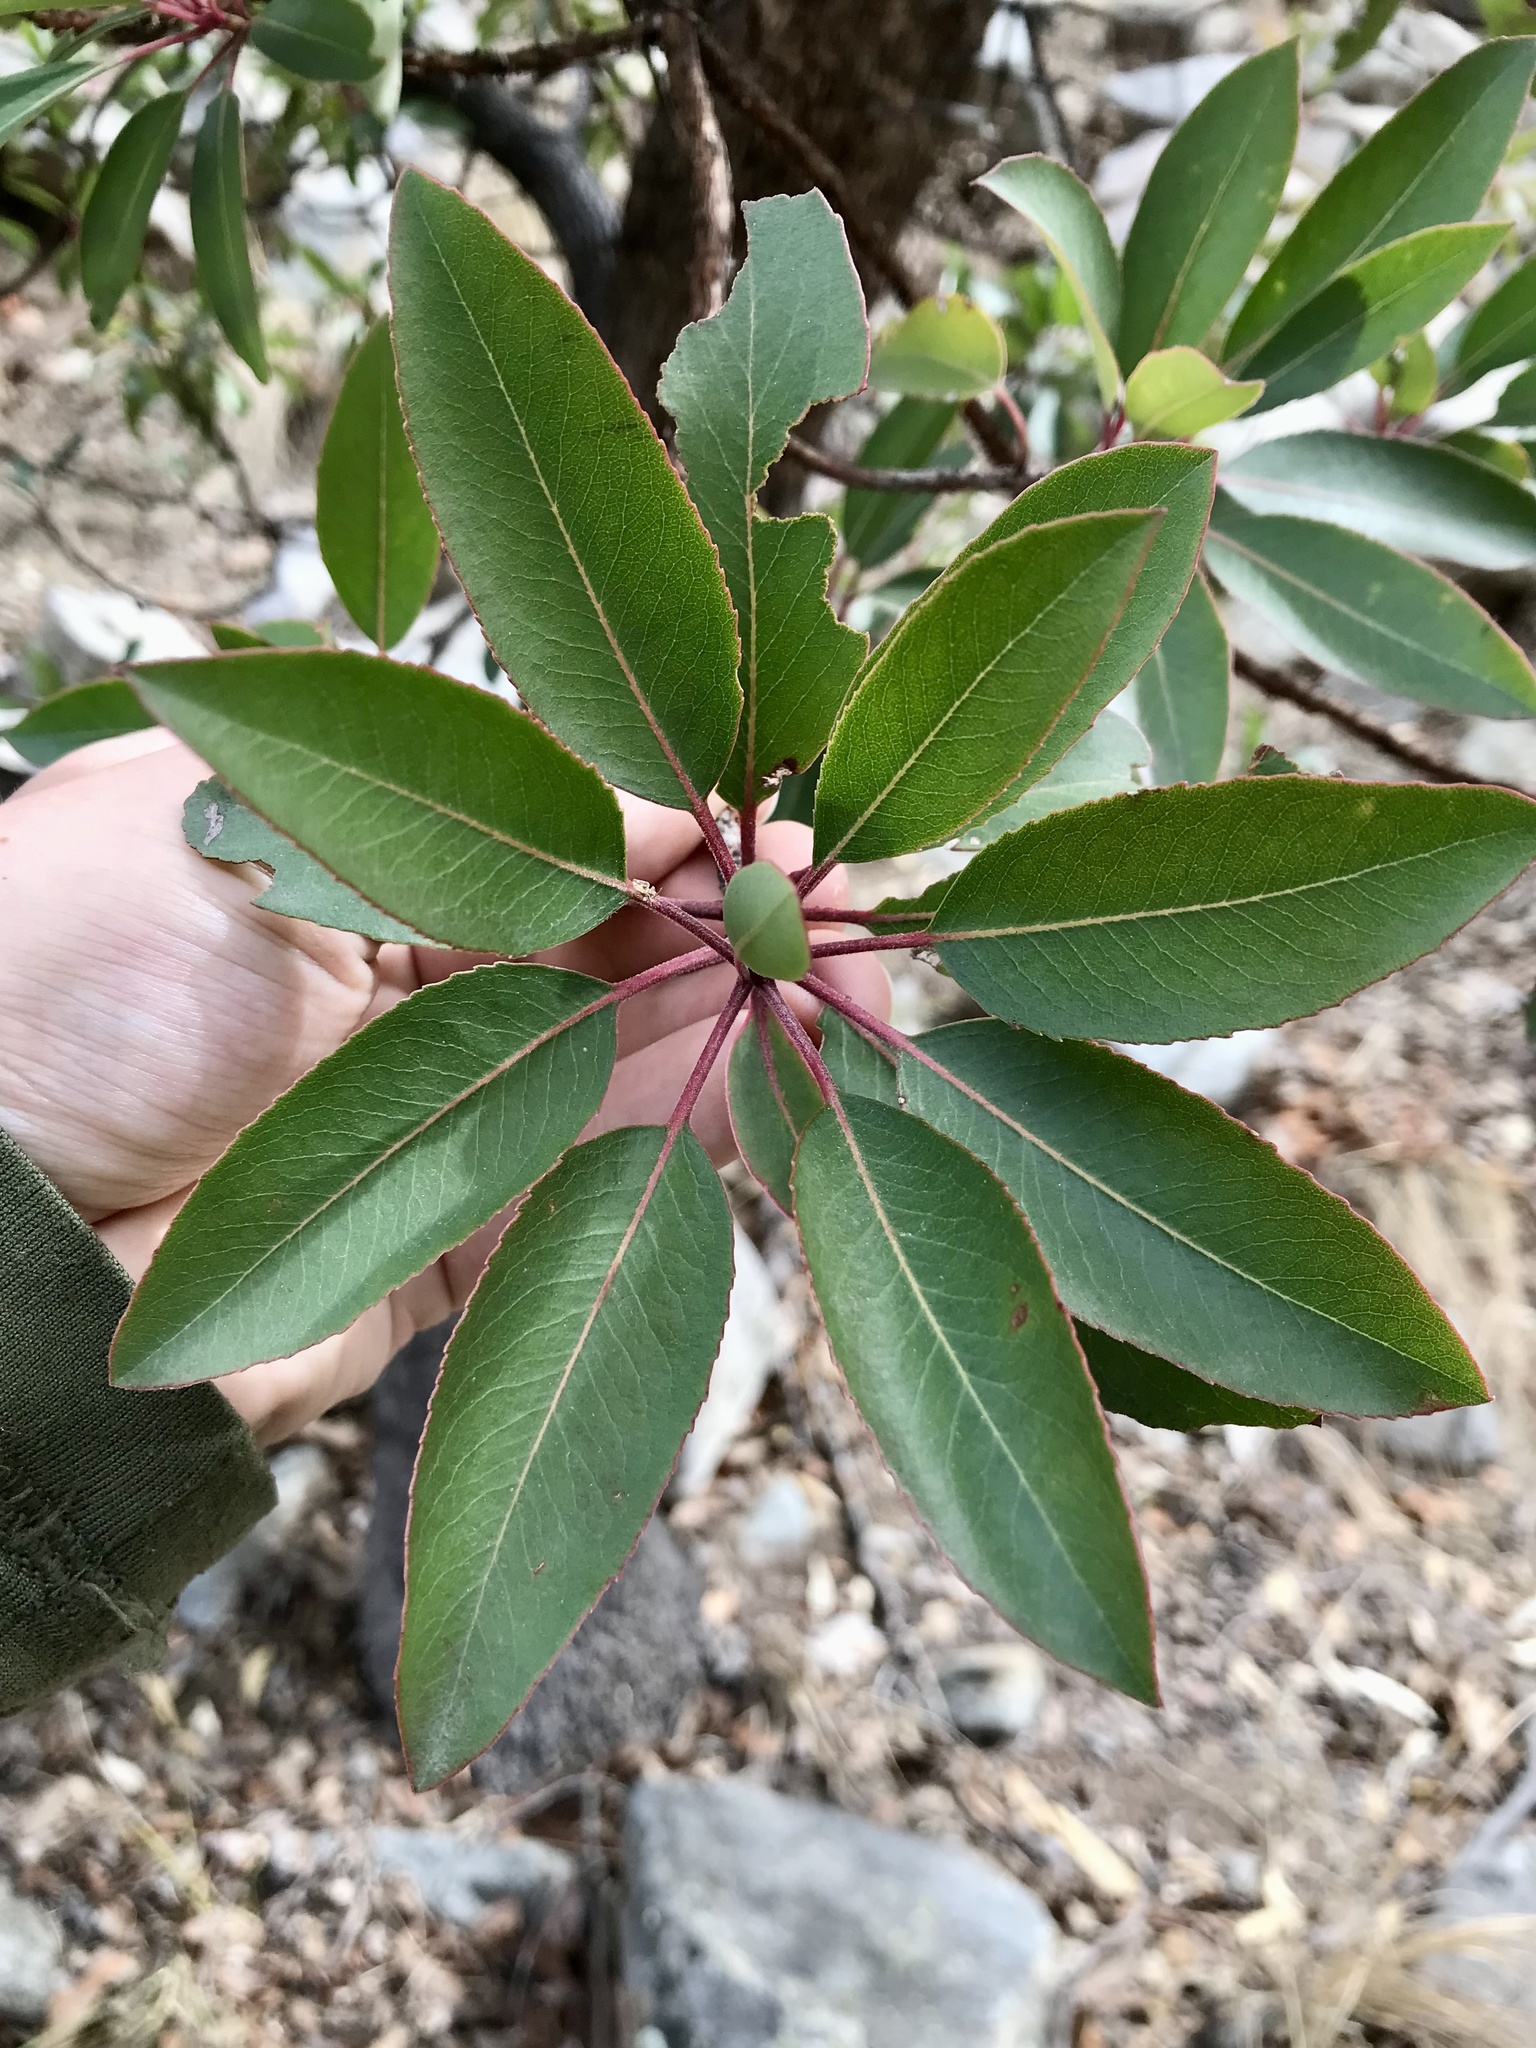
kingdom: Plantae
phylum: Tracheophyta
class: Magnoliopsida
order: Ericales
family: Ericaceae
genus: Arbutus
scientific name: Arbutus arizonica
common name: Arizona madrone
